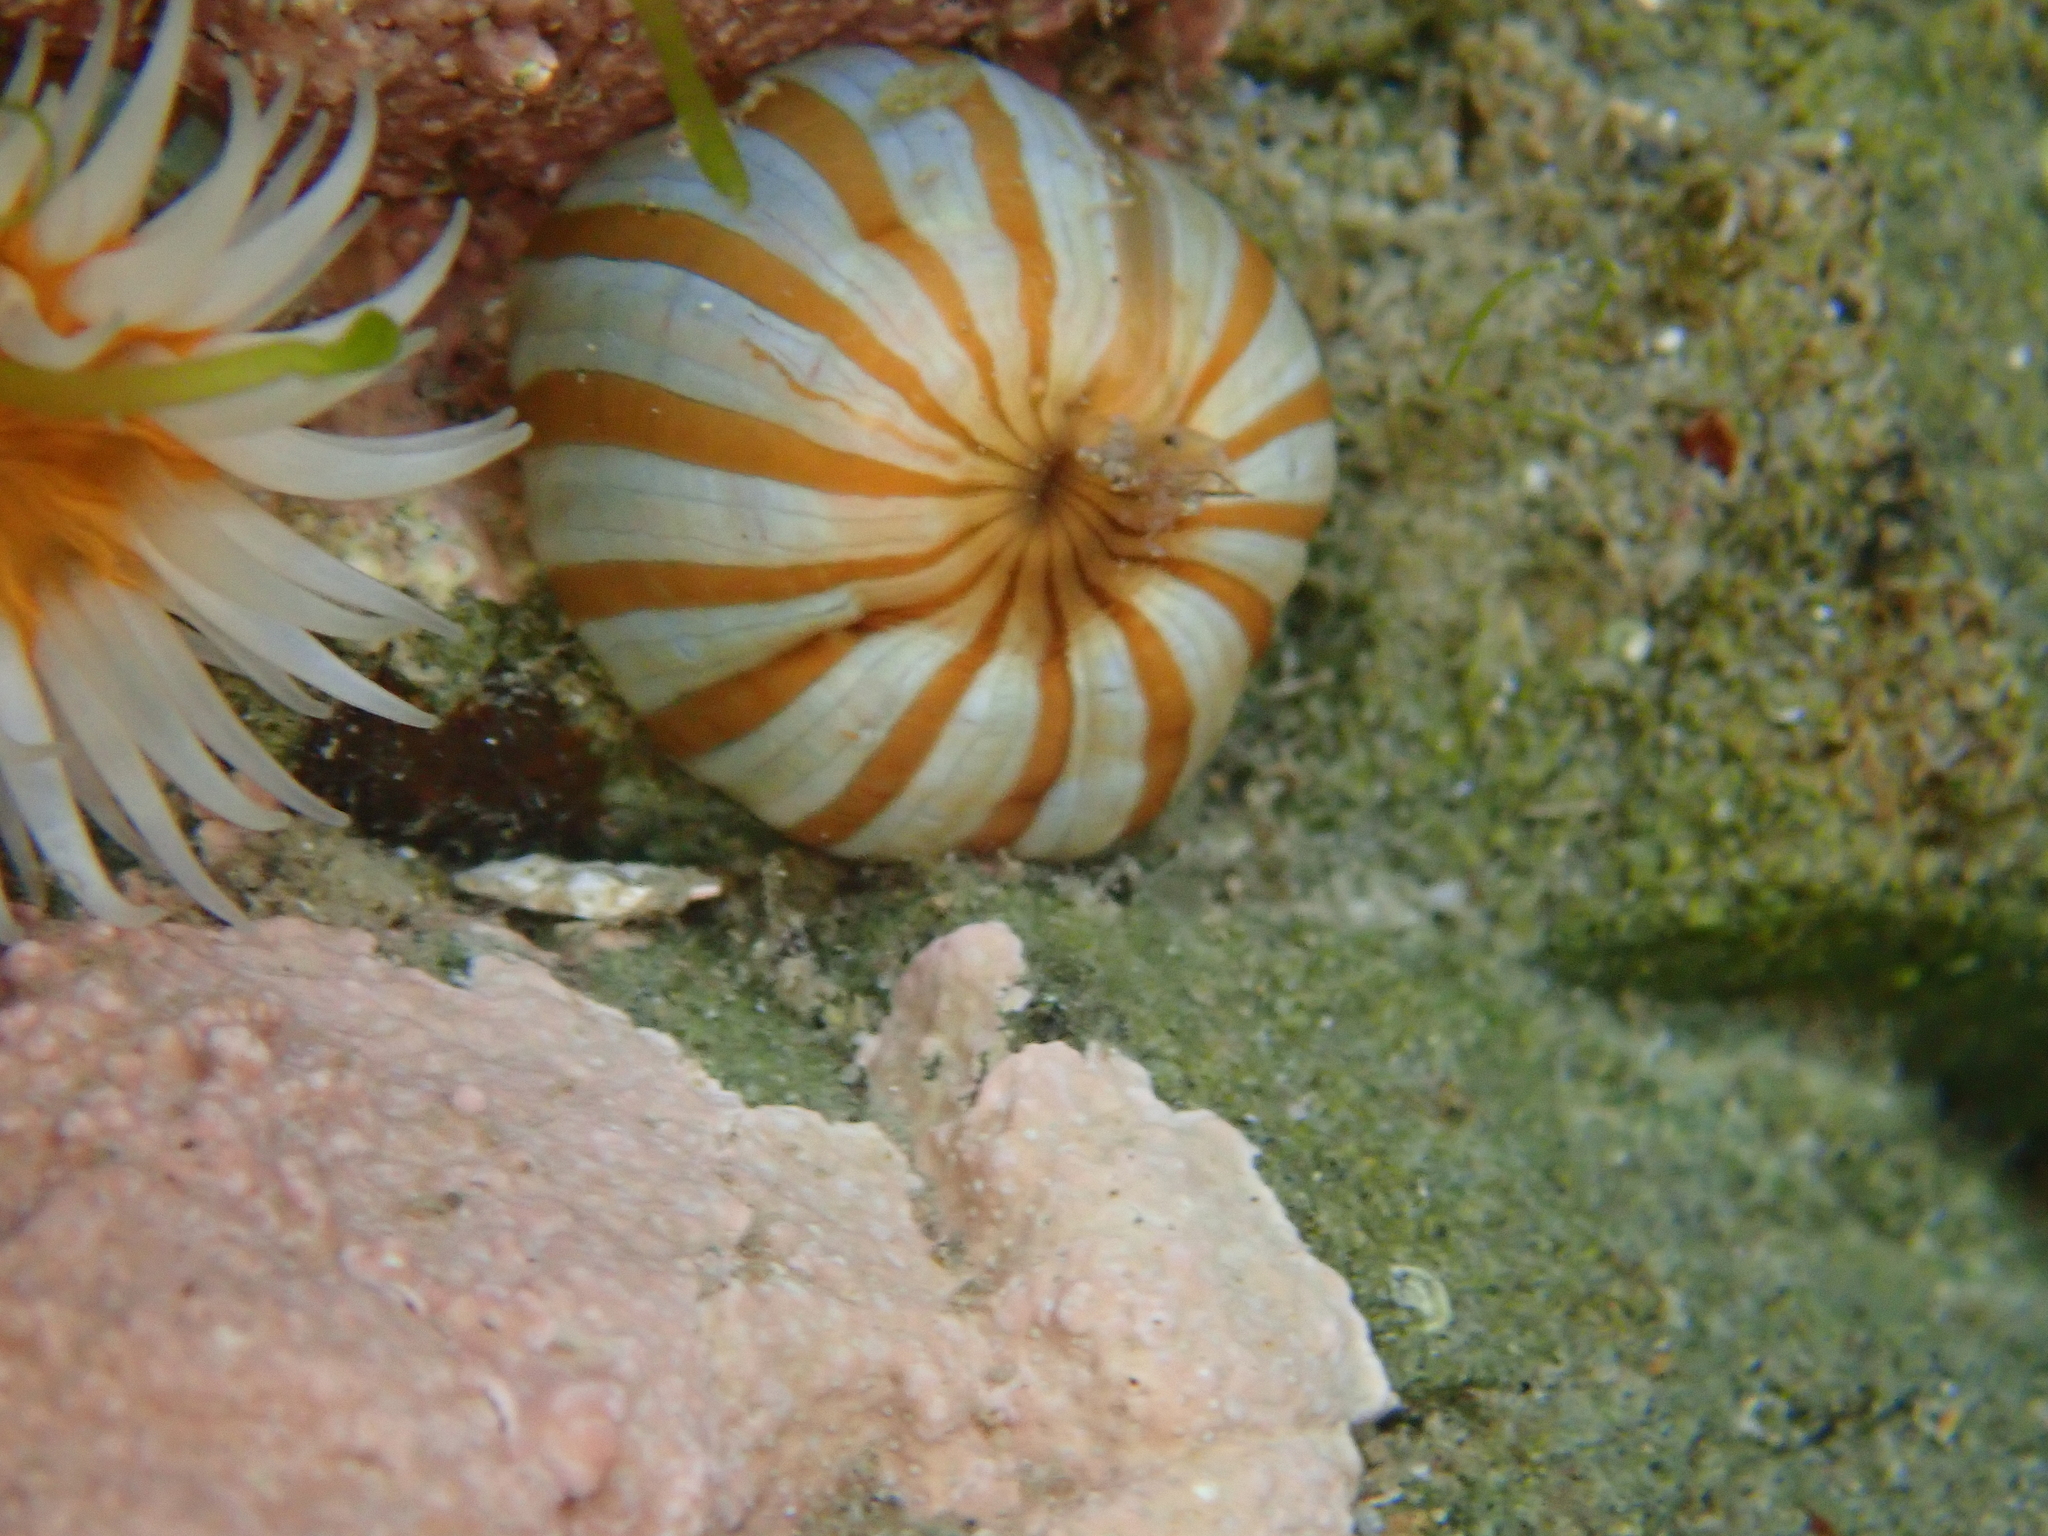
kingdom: Animalia
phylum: Cnidaria
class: Anthozoa
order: Actiniaria
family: Sagartiidae
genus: Anthothoe
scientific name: Anthothoe albocincta
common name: Orange striped anemone
